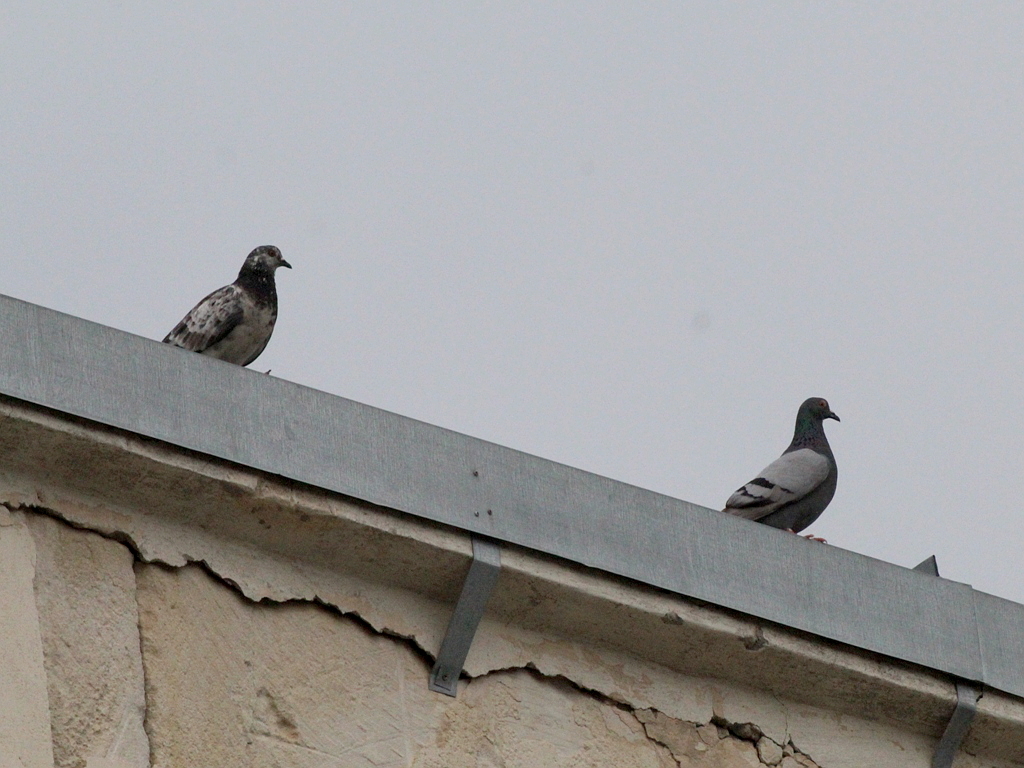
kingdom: Animalia
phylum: Chordata
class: Aves
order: Columbiformes
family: Columbidae
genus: Columba
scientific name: Columba livia
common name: Rock pigeon
